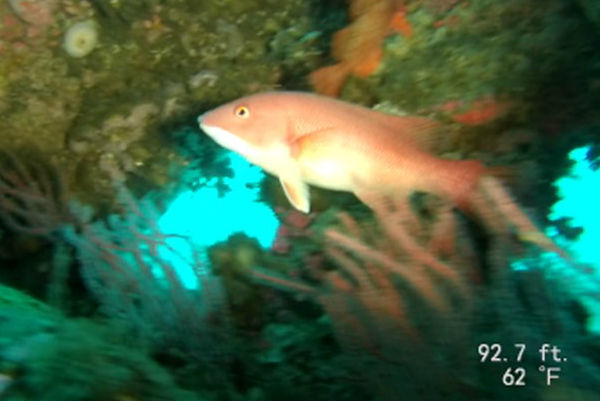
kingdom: Animalia
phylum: Chordata
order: Perciformes
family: Labridae
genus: Semicossyphus
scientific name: Semicossyphus pulcher
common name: California sheephead
